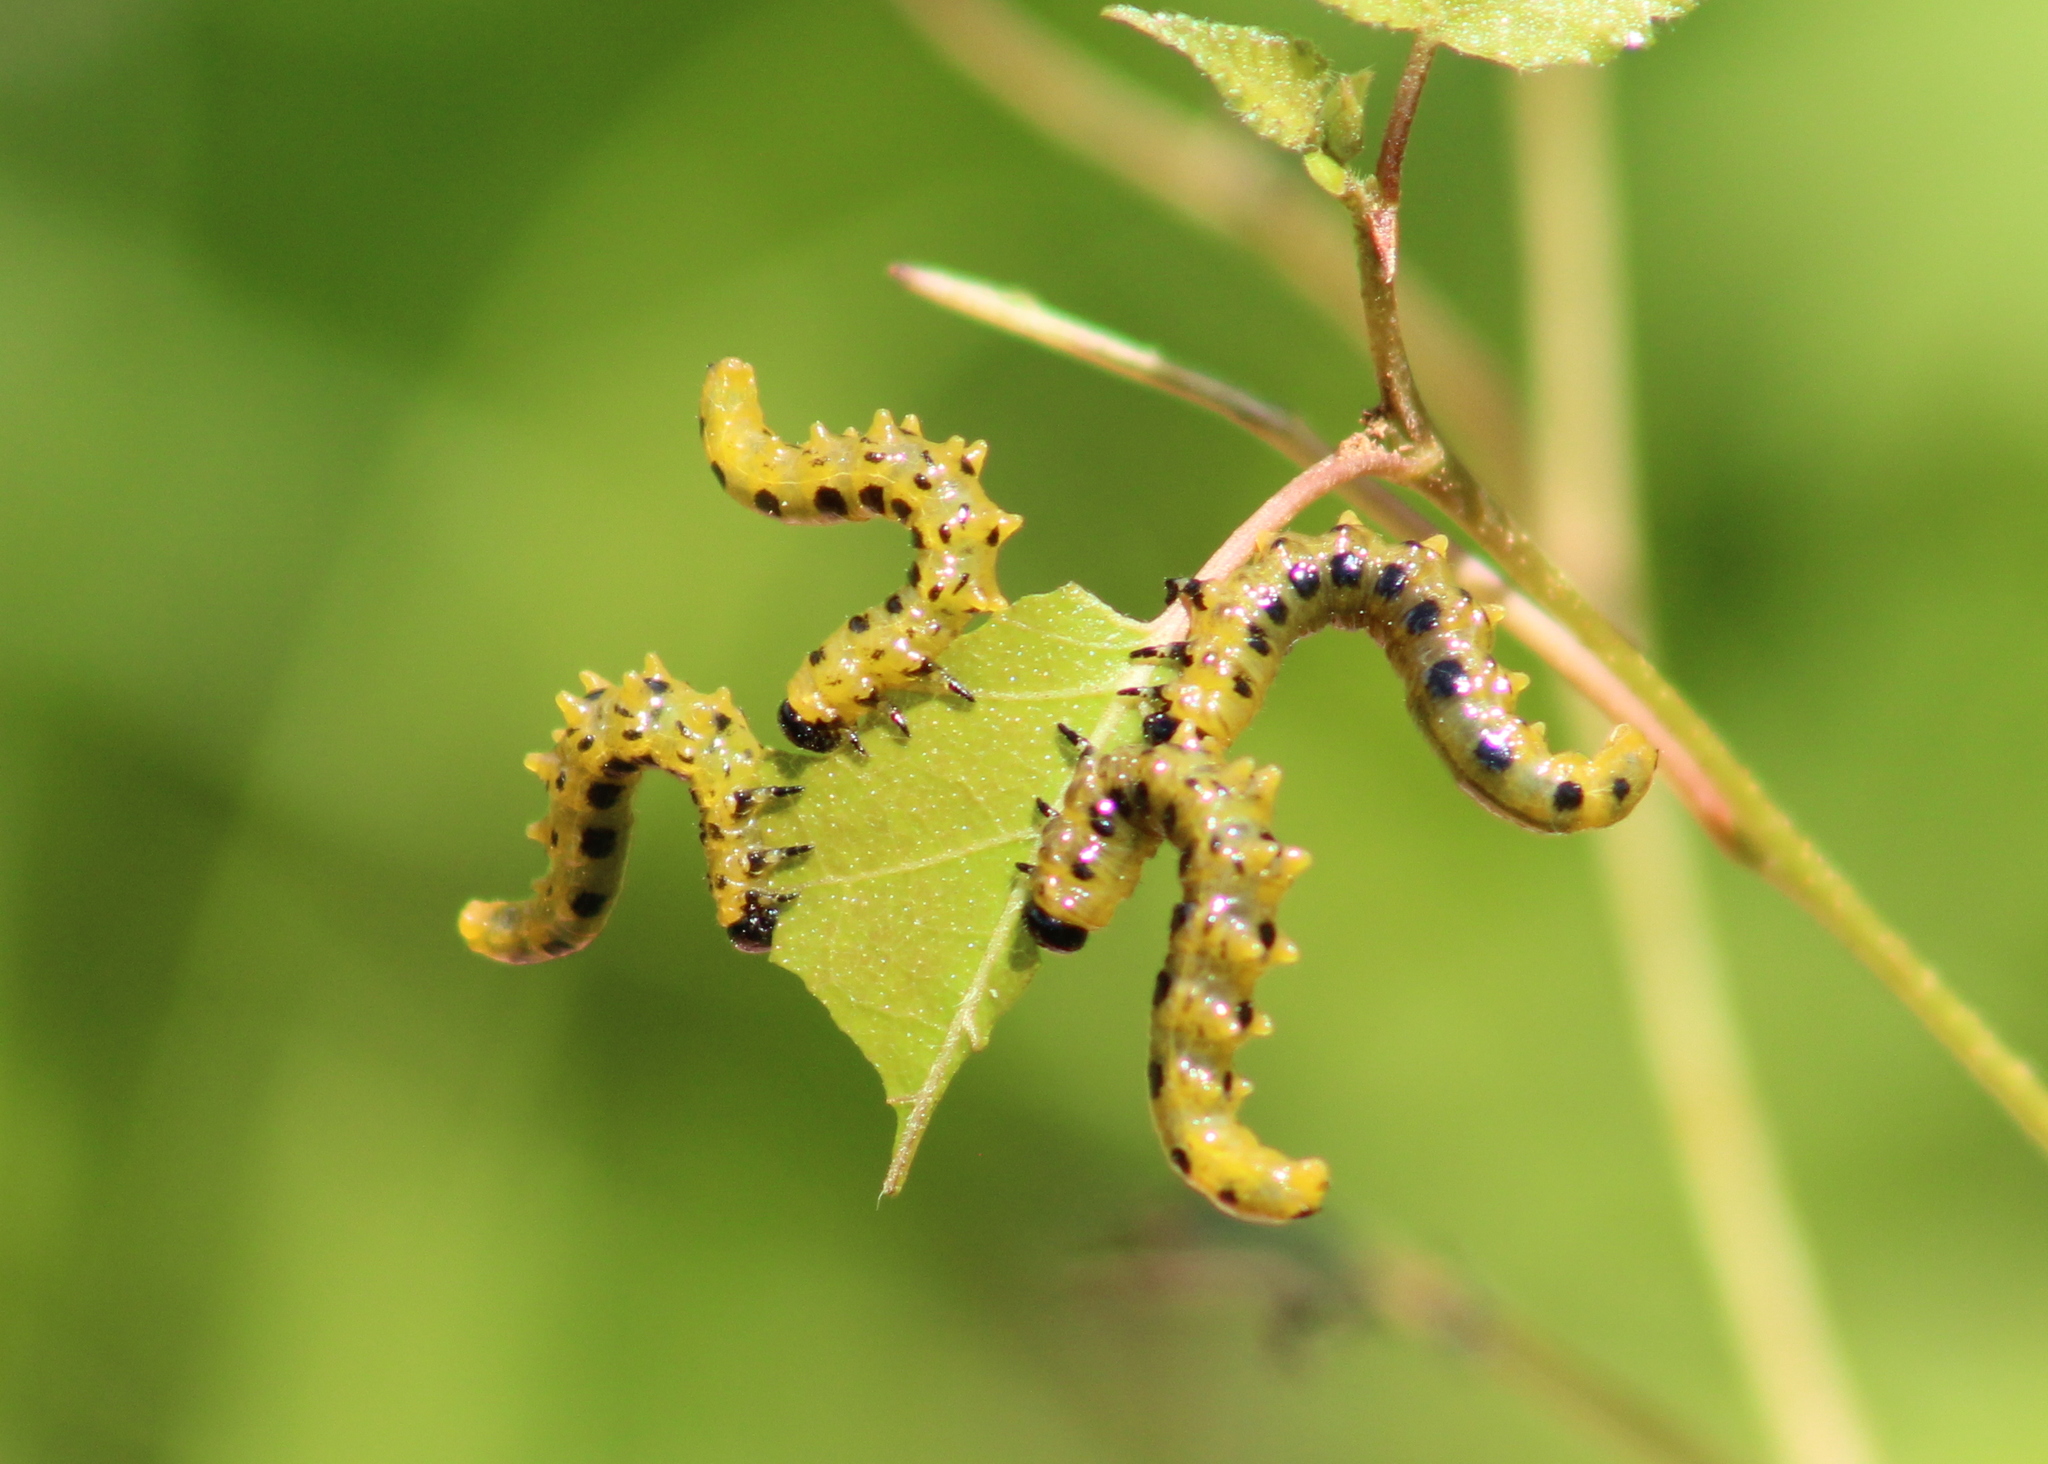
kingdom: Animalia
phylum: Arthropoda
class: Insecta
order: Hymenoptera
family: Tenthredinidae
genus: Nematus
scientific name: Nematus
